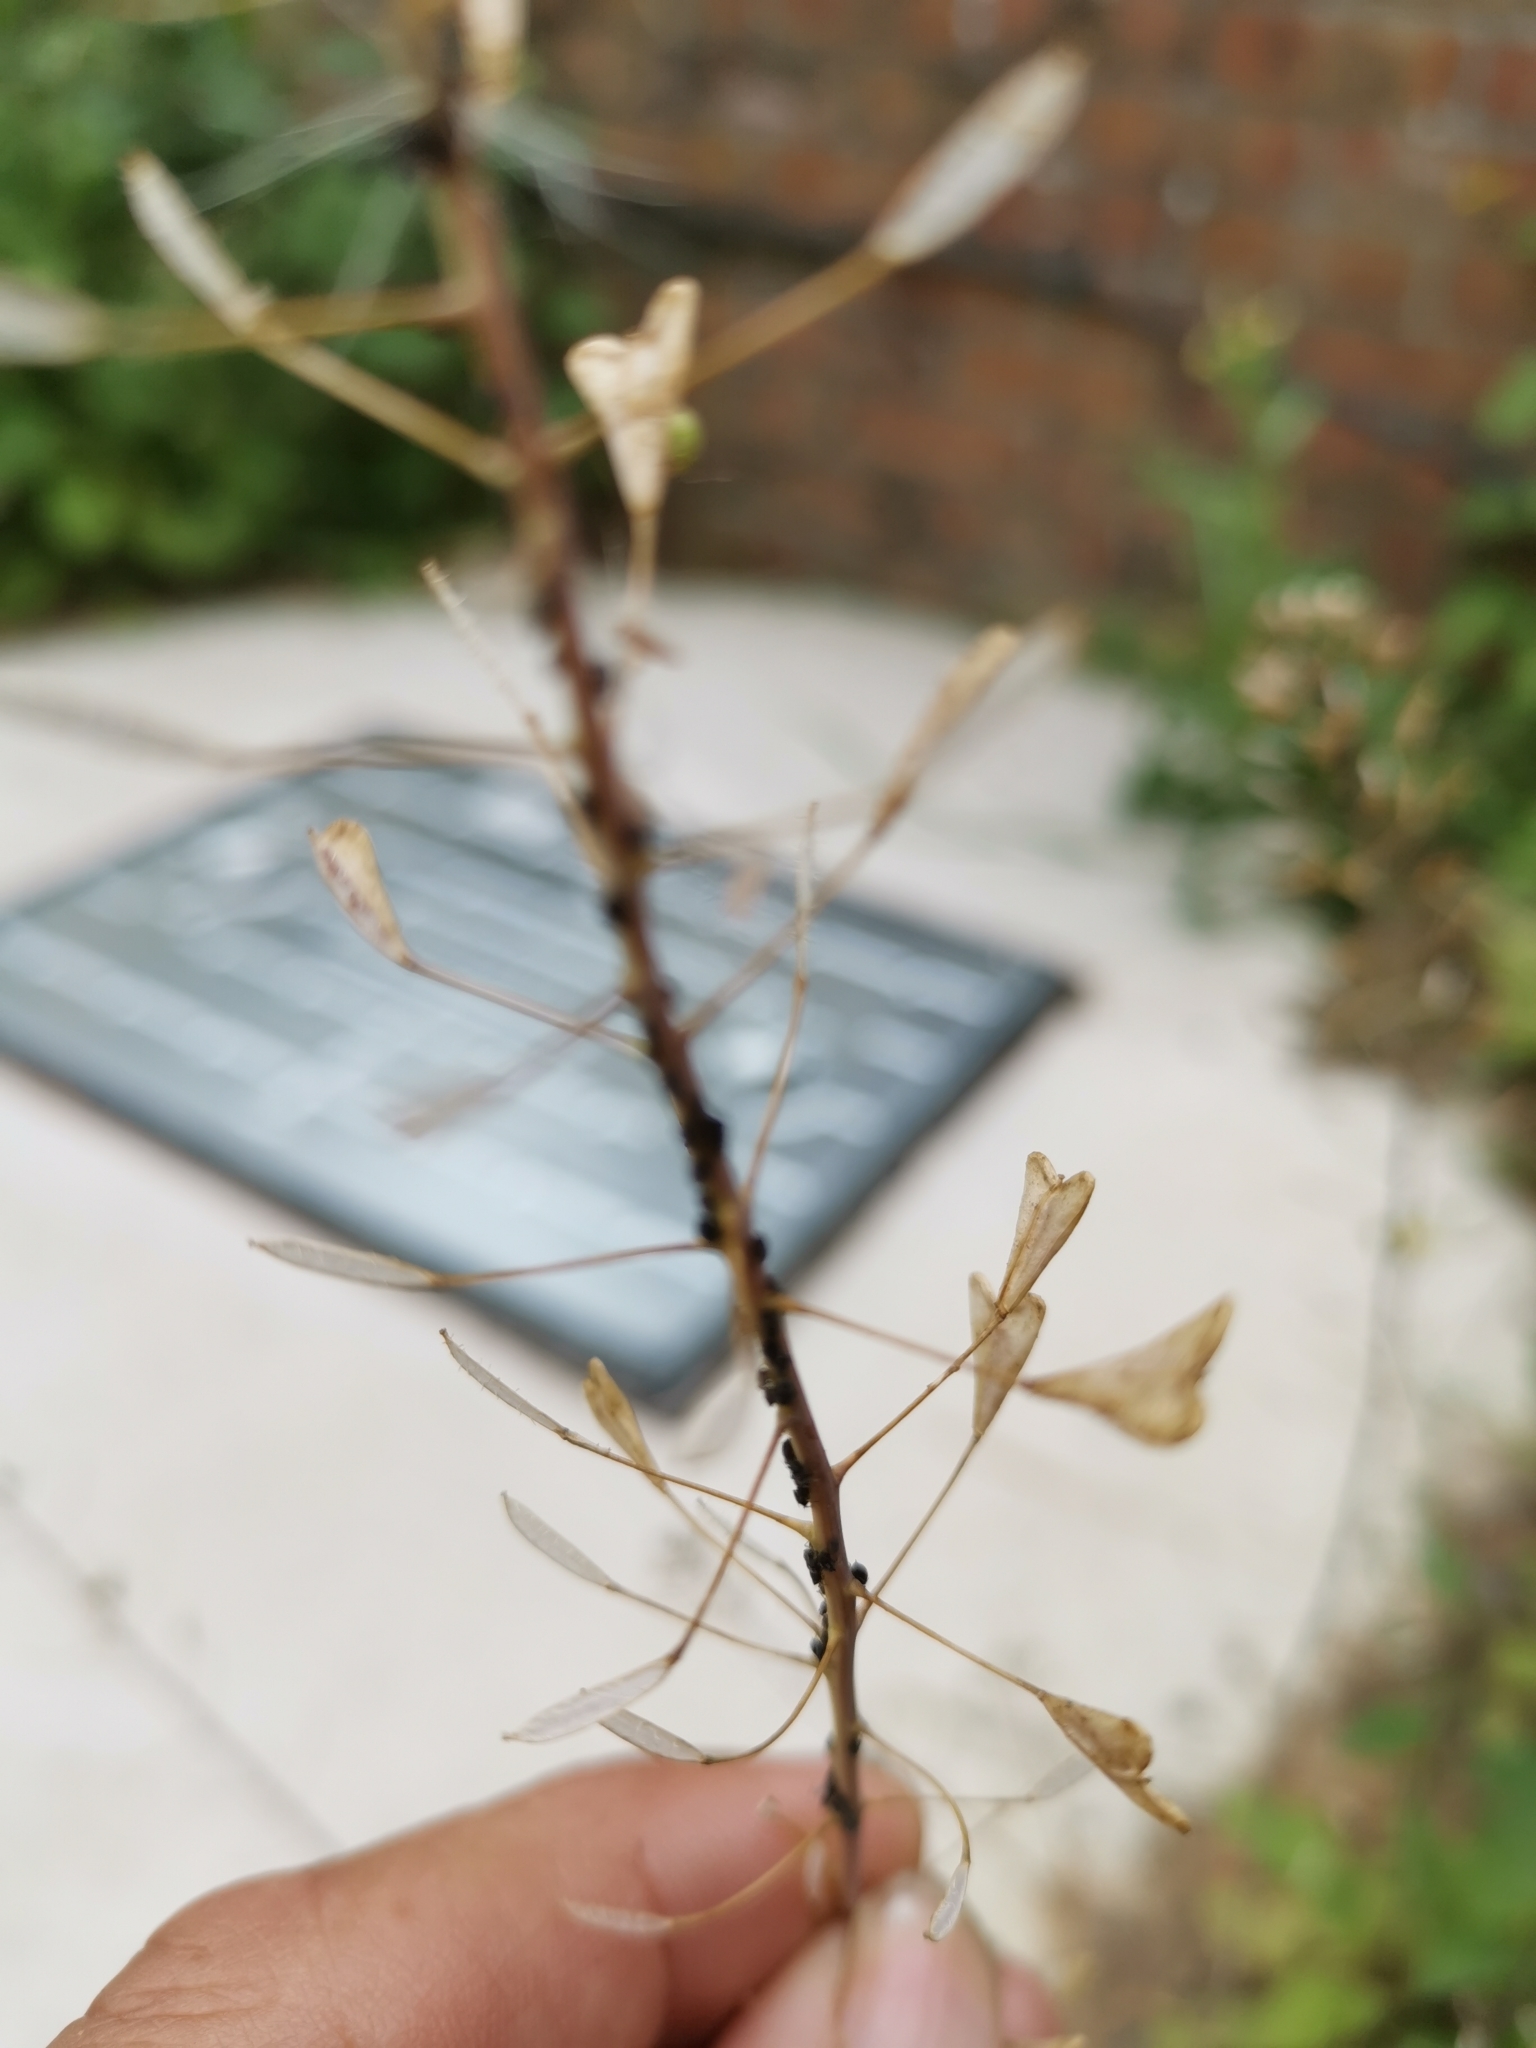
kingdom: Plantae
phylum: Tracheophyta
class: Magnoliopsida
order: Brassicales
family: Brassicaceae
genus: Capsella
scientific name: Capsella bursa-pastoris
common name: Shepherd's purse
